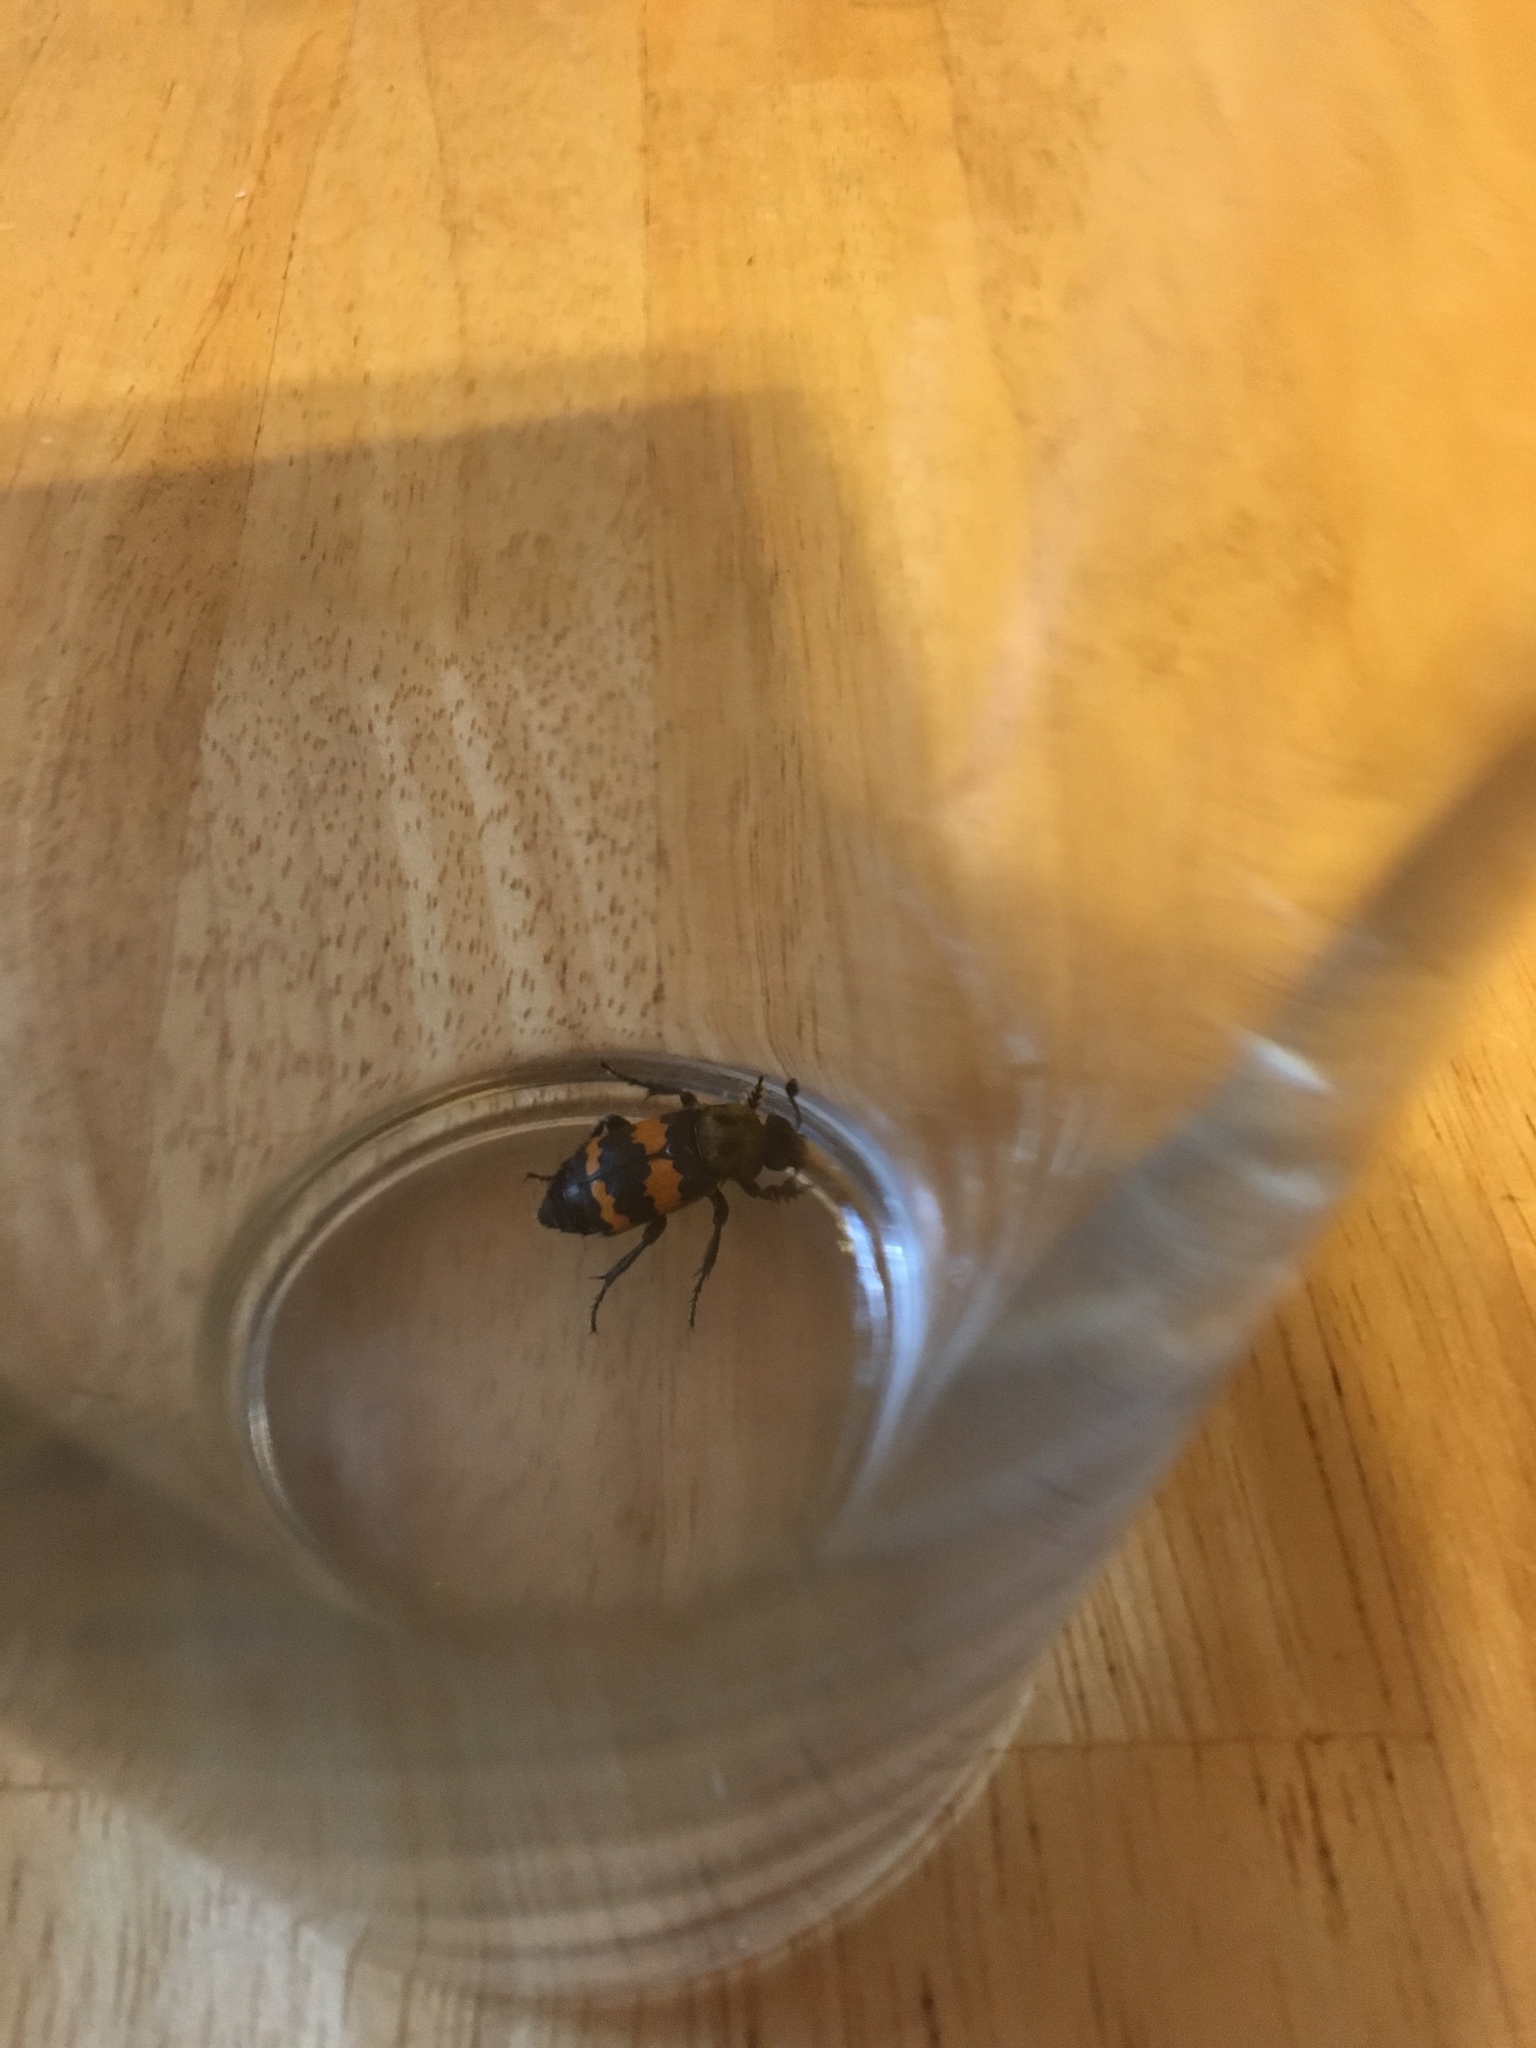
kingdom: Animalia
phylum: Arthropoda
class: Insecta
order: Coleoptera
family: Staphylinidae
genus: Nicrophorus
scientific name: Nicrophorus tomentosus
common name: Tomentose burying beetle
